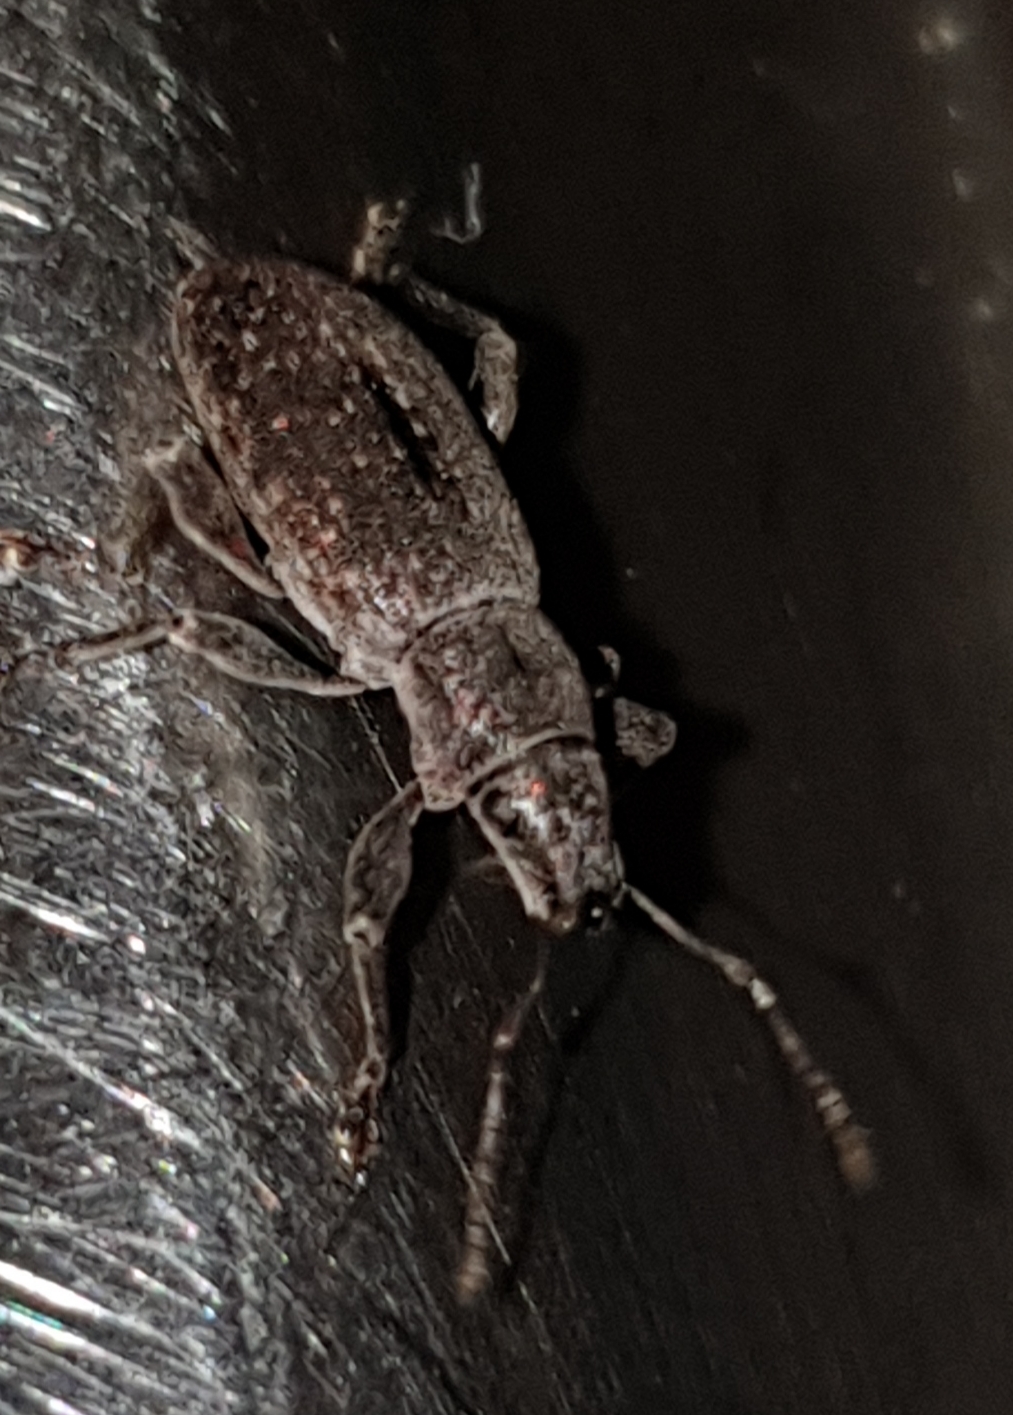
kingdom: Animalia
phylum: Arthropoda
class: Insecta
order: Coleoptera
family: Curculionidae
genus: Brachyderes
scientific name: Brachyderes incanus
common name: Weevil
